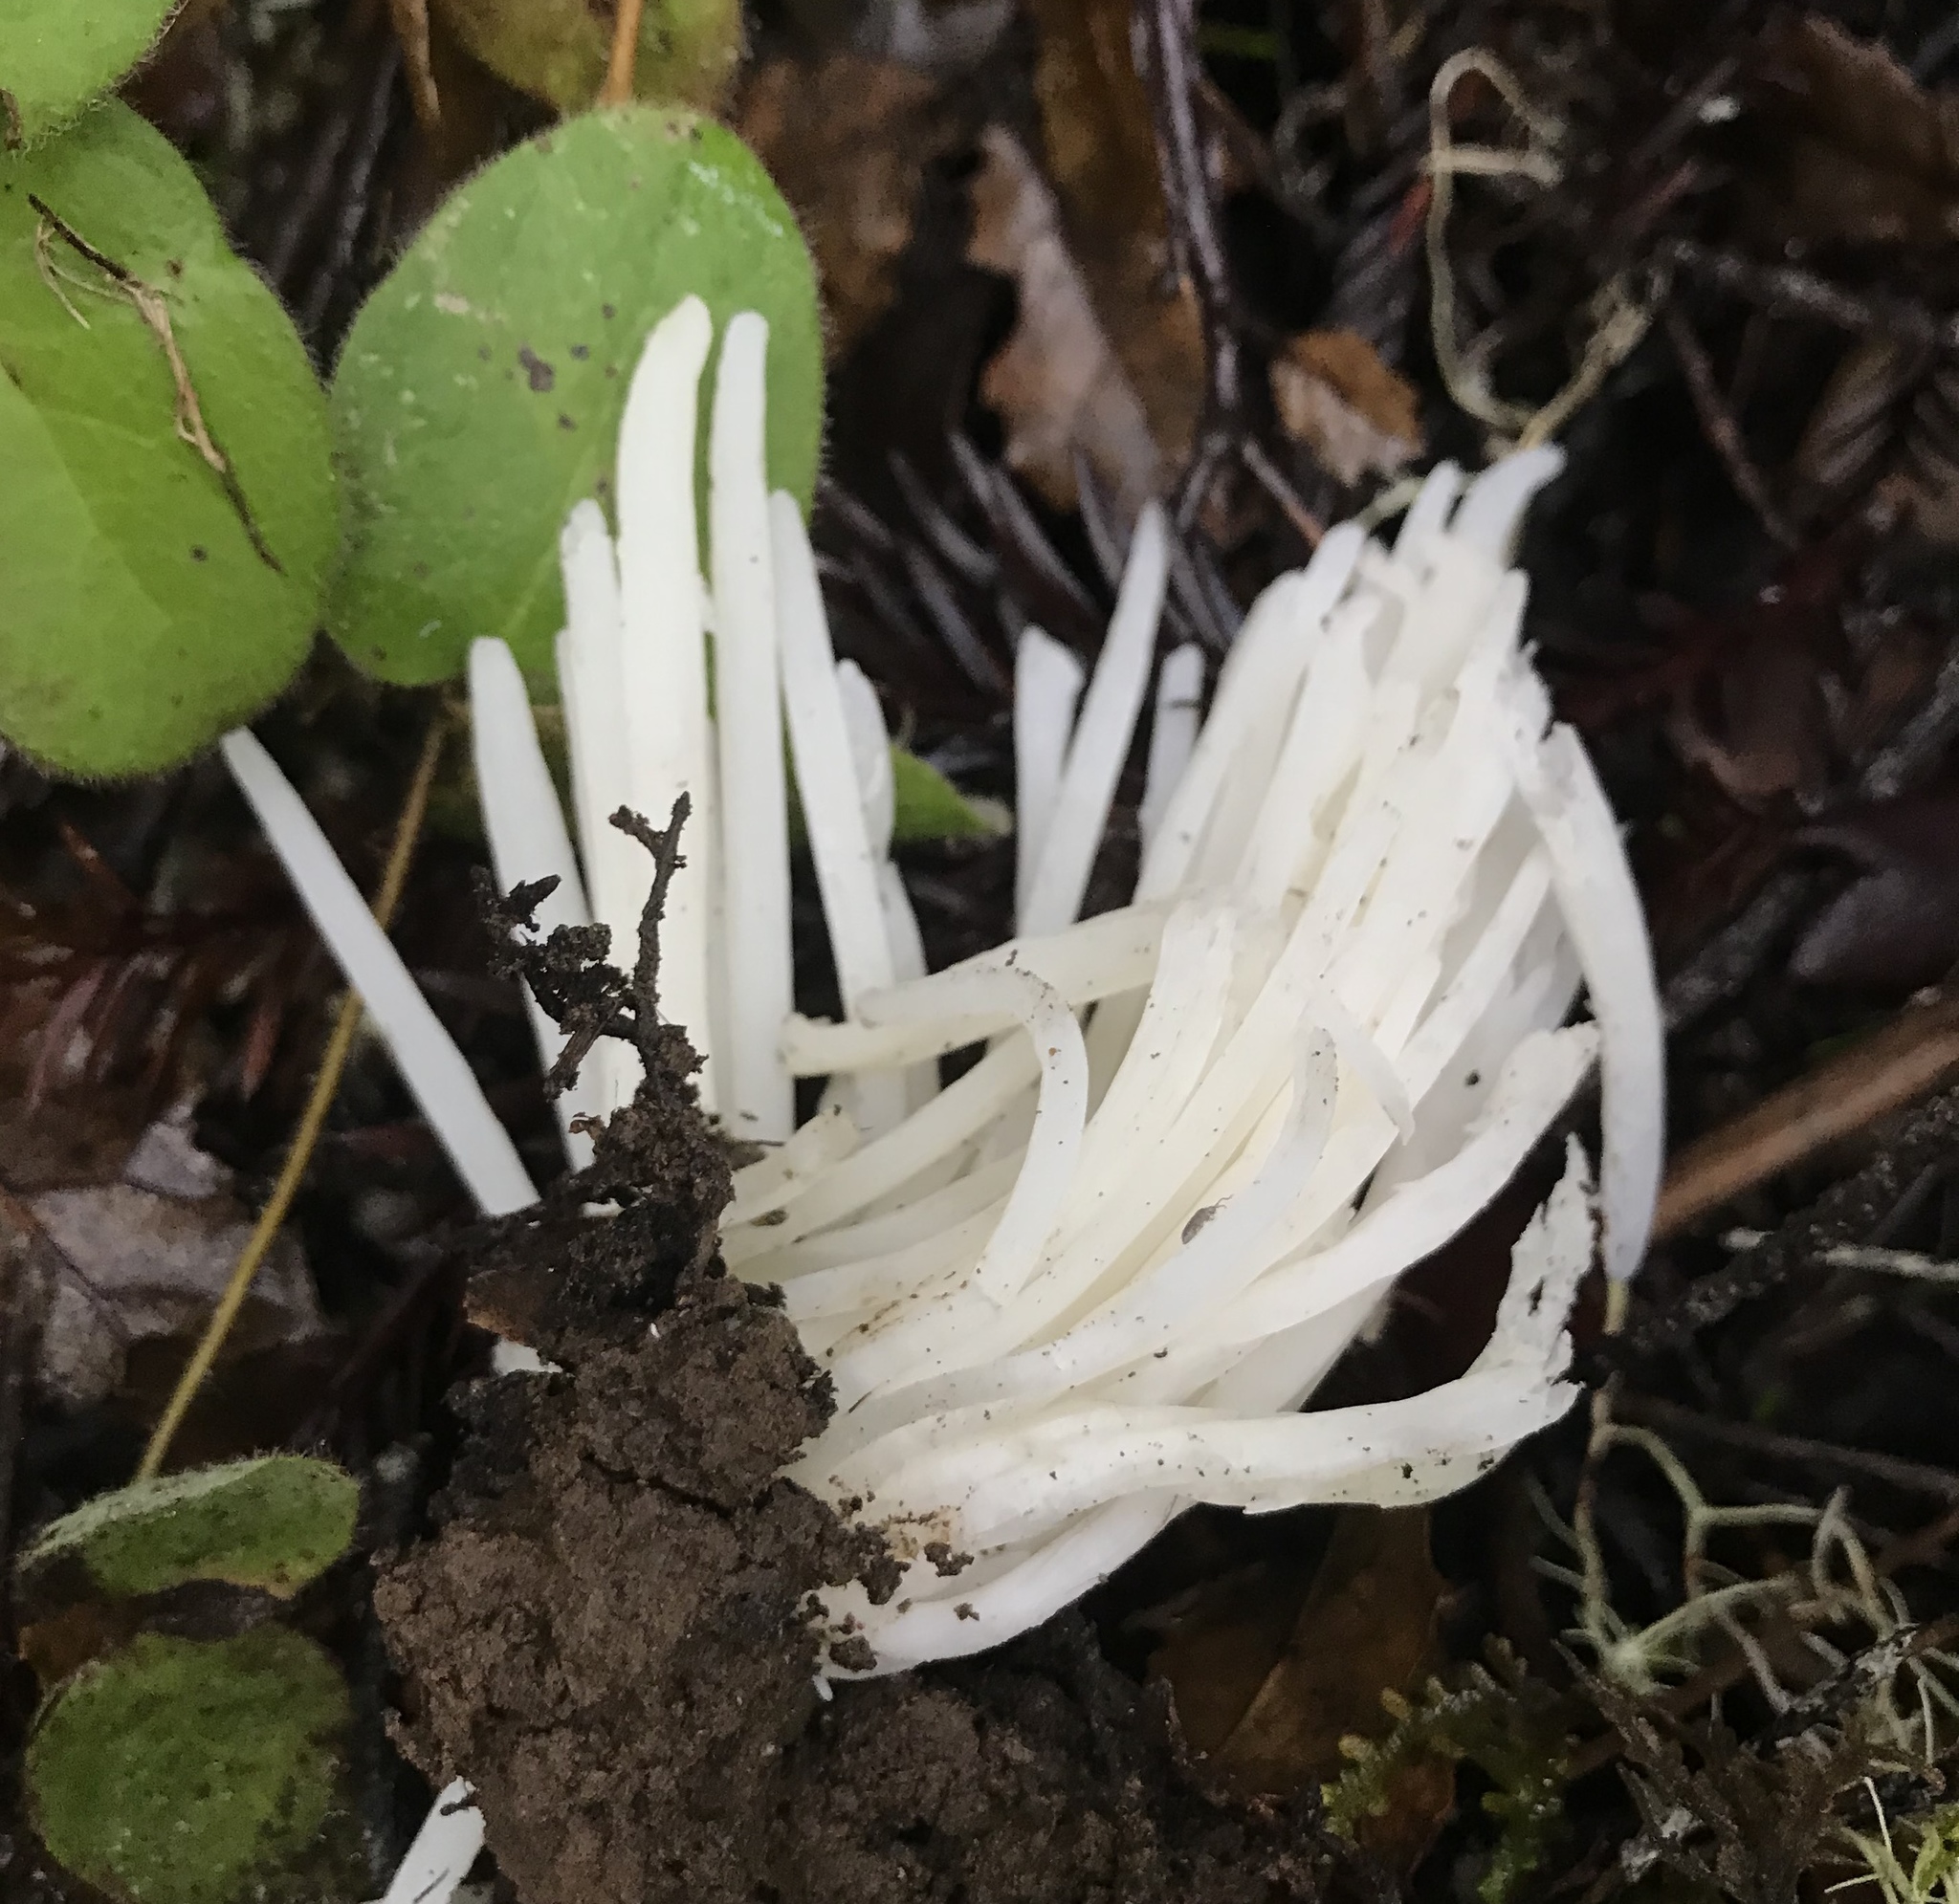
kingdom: Fungi
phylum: Basidiomycota
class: Agaricomycetes
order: Agaricales
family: Clavariaceae
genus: Clavaria
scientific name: Clavaria fragilis
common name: White spindles
